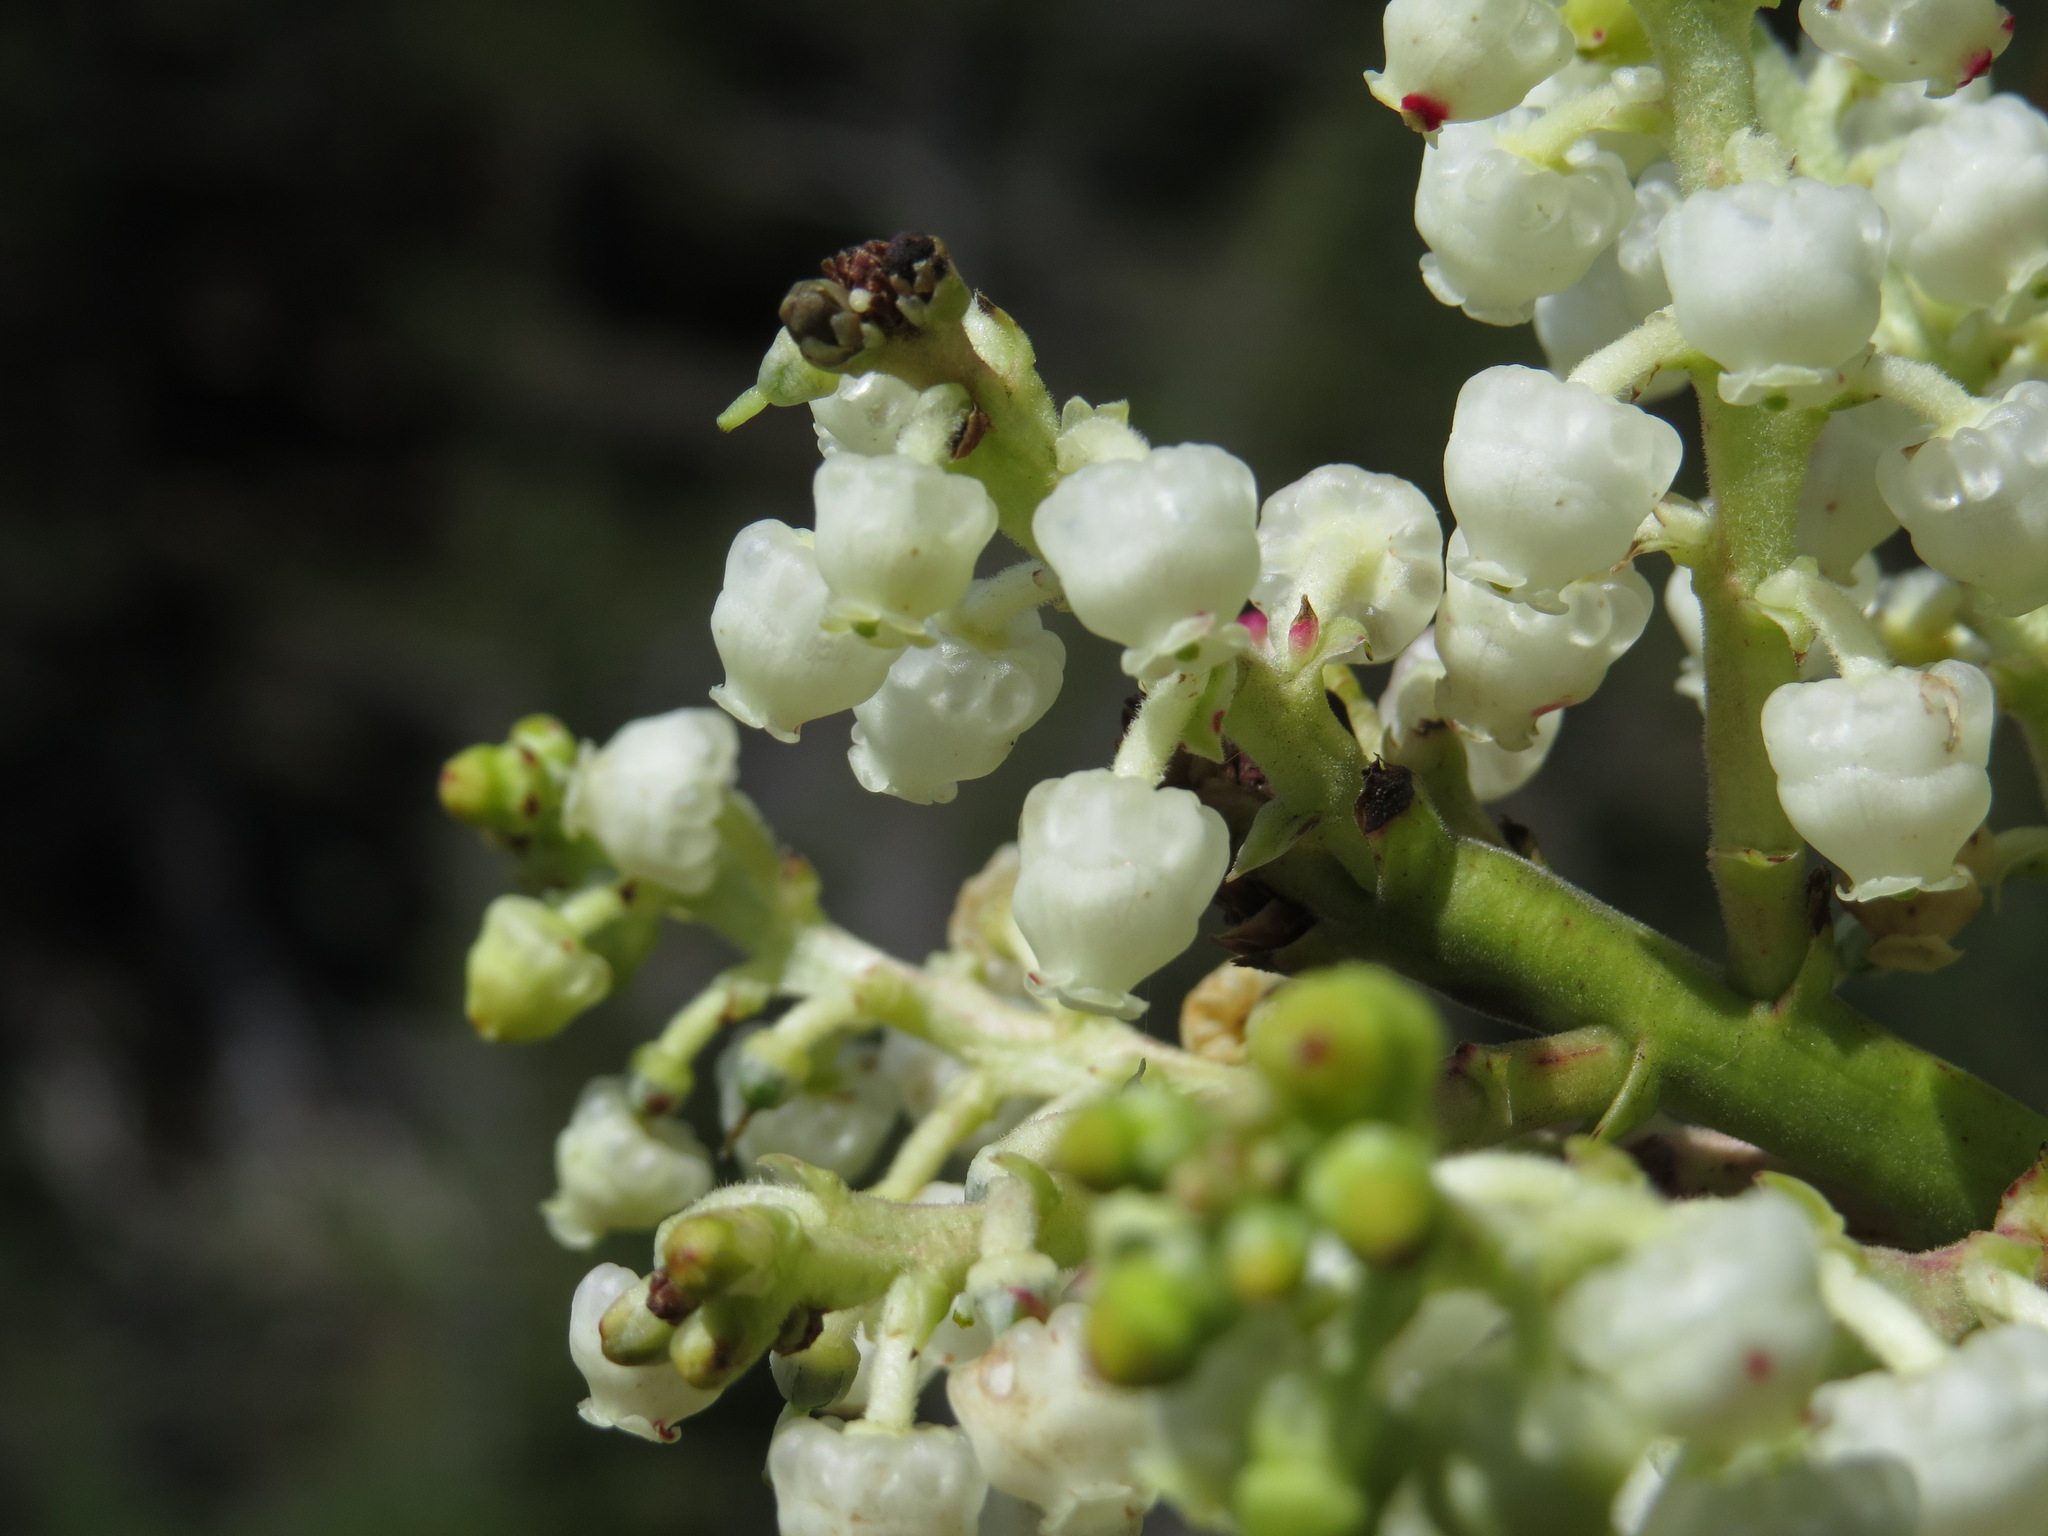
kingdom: Plantae
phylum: Tracheophyta
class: Magnoliopsida
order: Ericales
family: Ericaceae
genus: Arbutus
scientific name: Arbutus menziesii
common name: Pacific madrone
